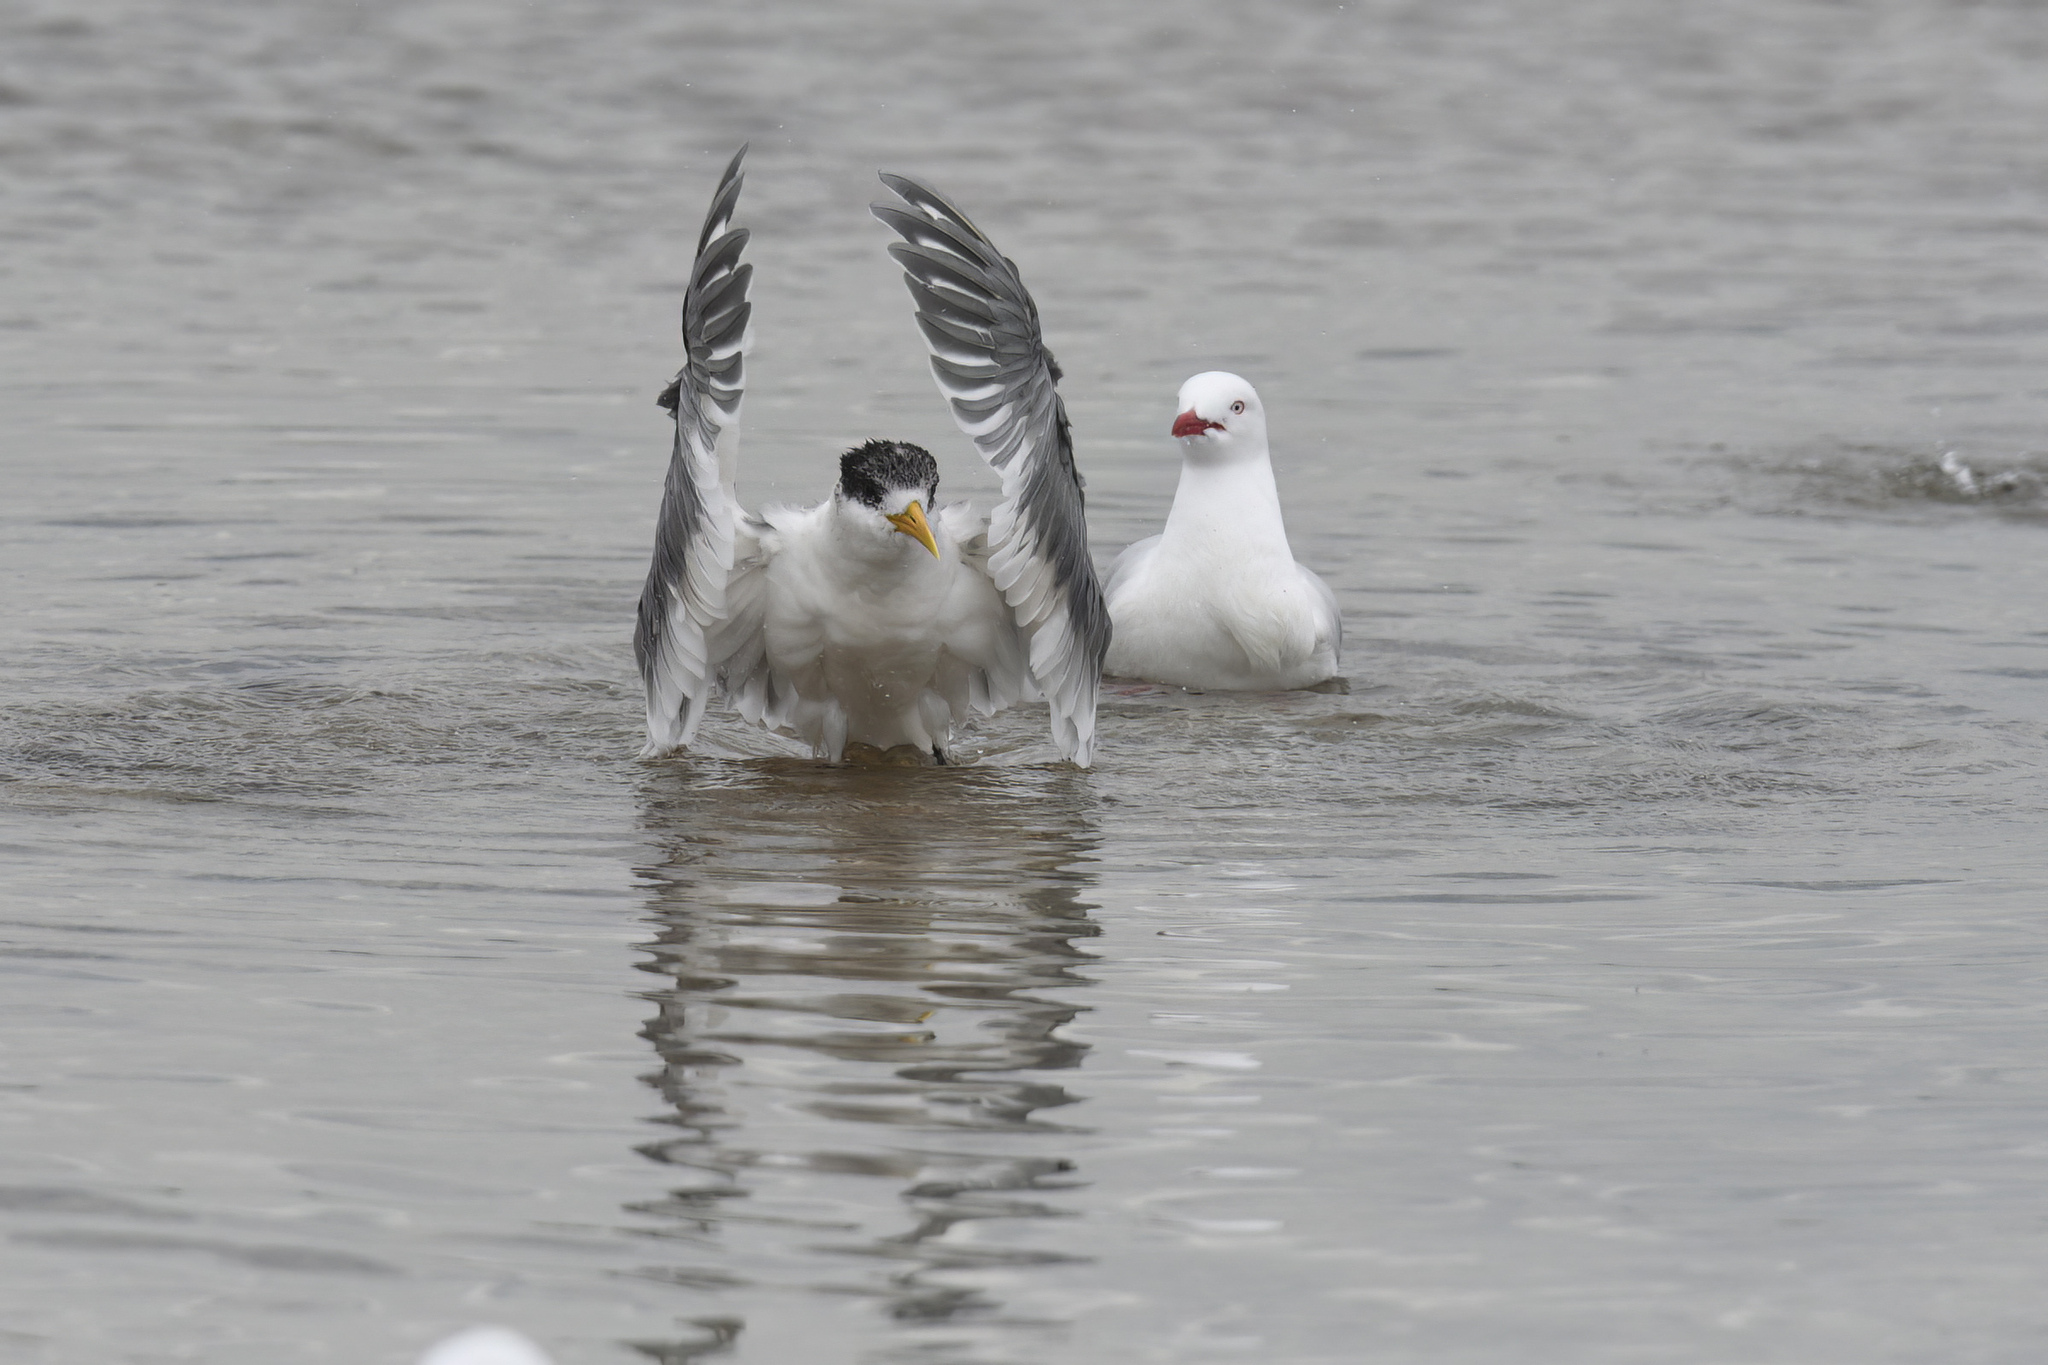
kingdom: Animalia
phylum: Chordata
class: Aves
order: Charadriiformes
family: Laridae
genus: Thalasseus
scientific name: Thalasseus bergii
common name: Greater crested tern
